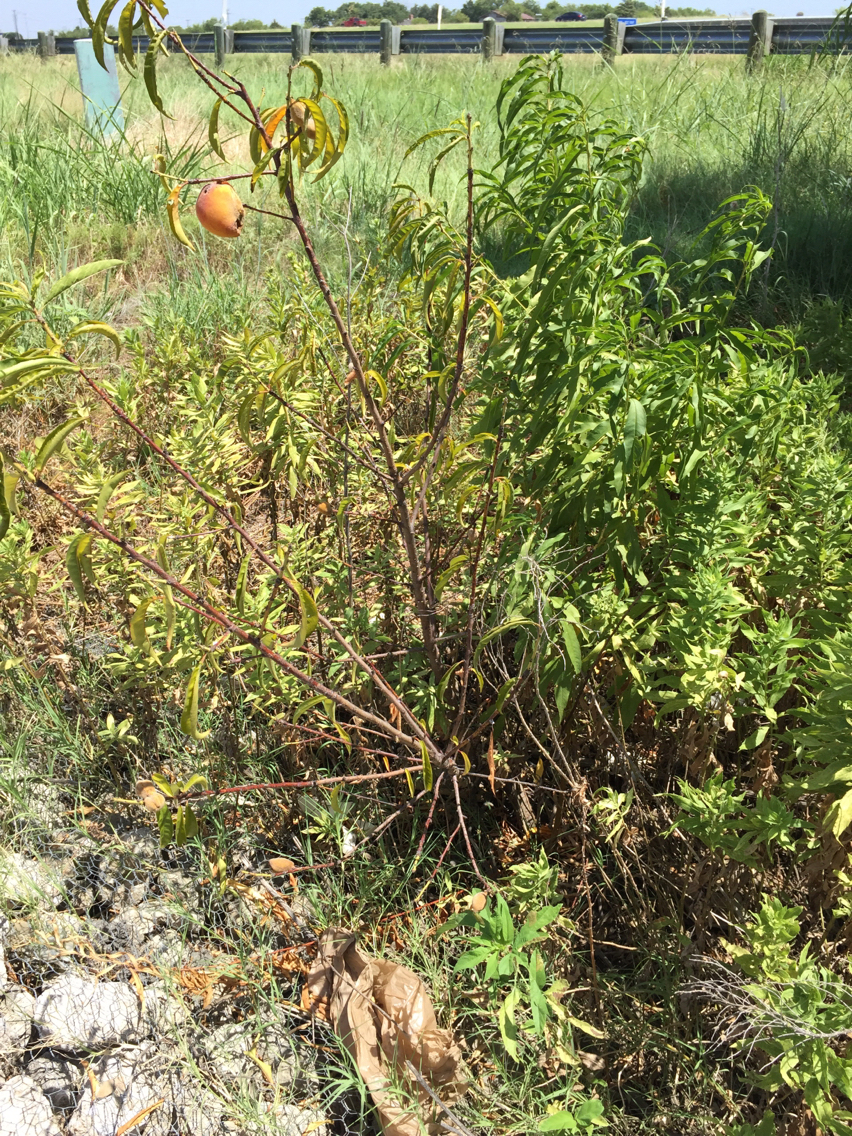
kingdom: Plantae
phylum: Tracheophyta
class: Magnoliopsida
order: Rosales
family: Rosaceae
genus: Prunus
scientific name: Prunus persica
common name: Peach
